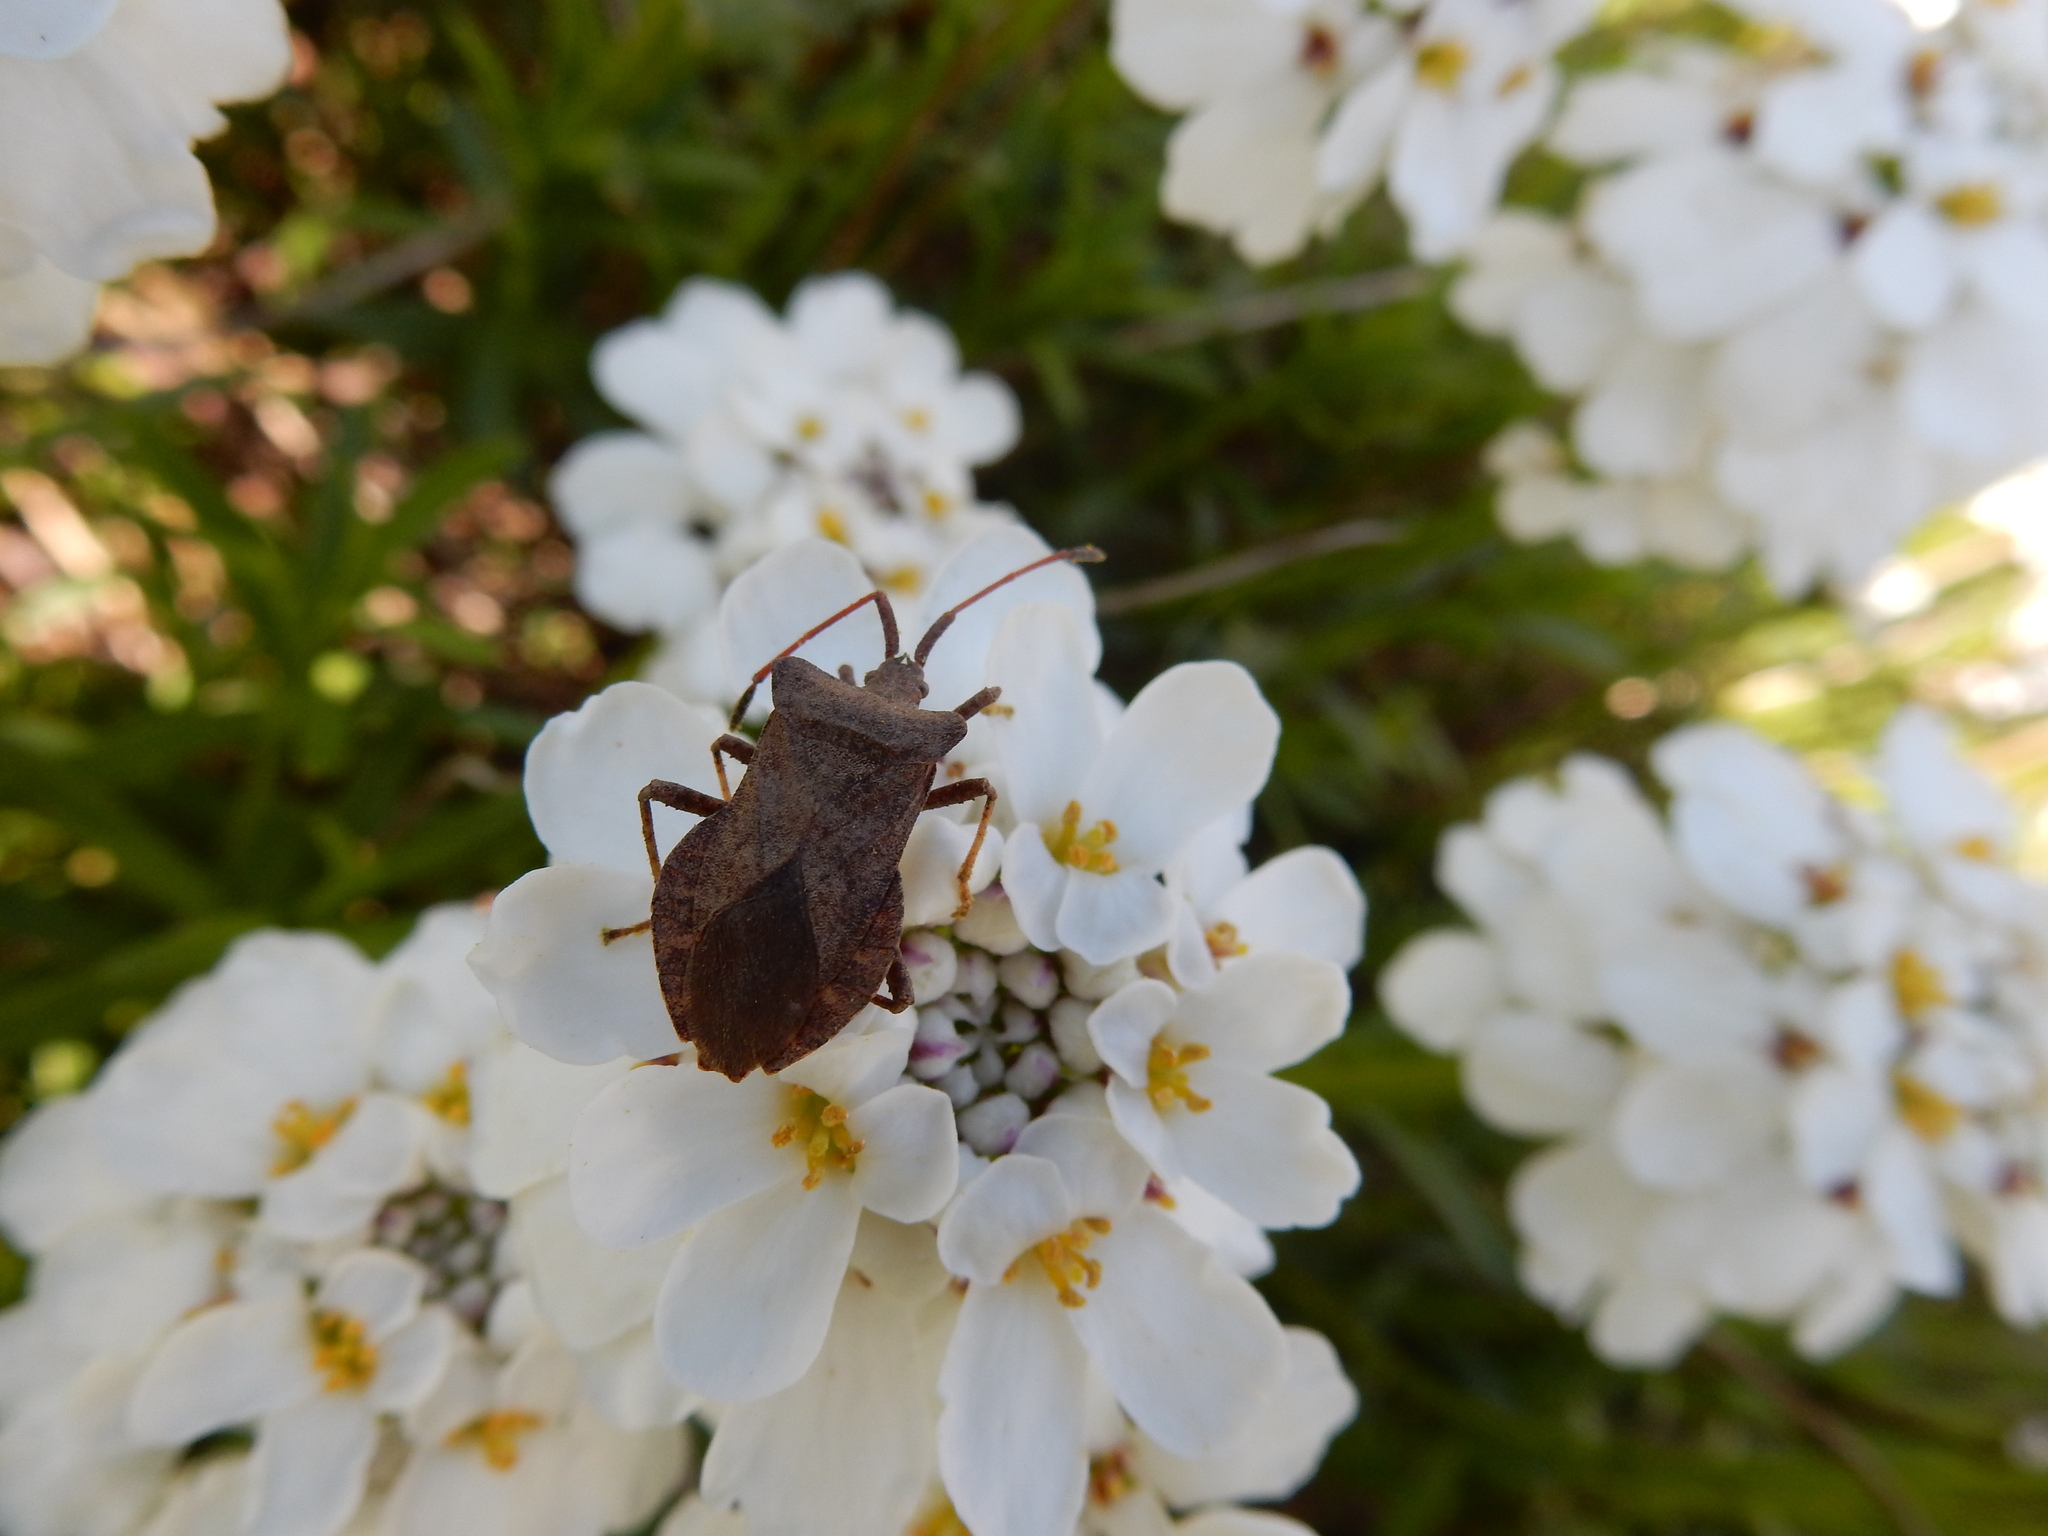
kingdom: Animalia
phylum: Arthropoda
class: Insecta
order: Hemiptera
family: Coreidae
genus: Coreus
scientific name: Coreus marginatus
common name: Dock bug
